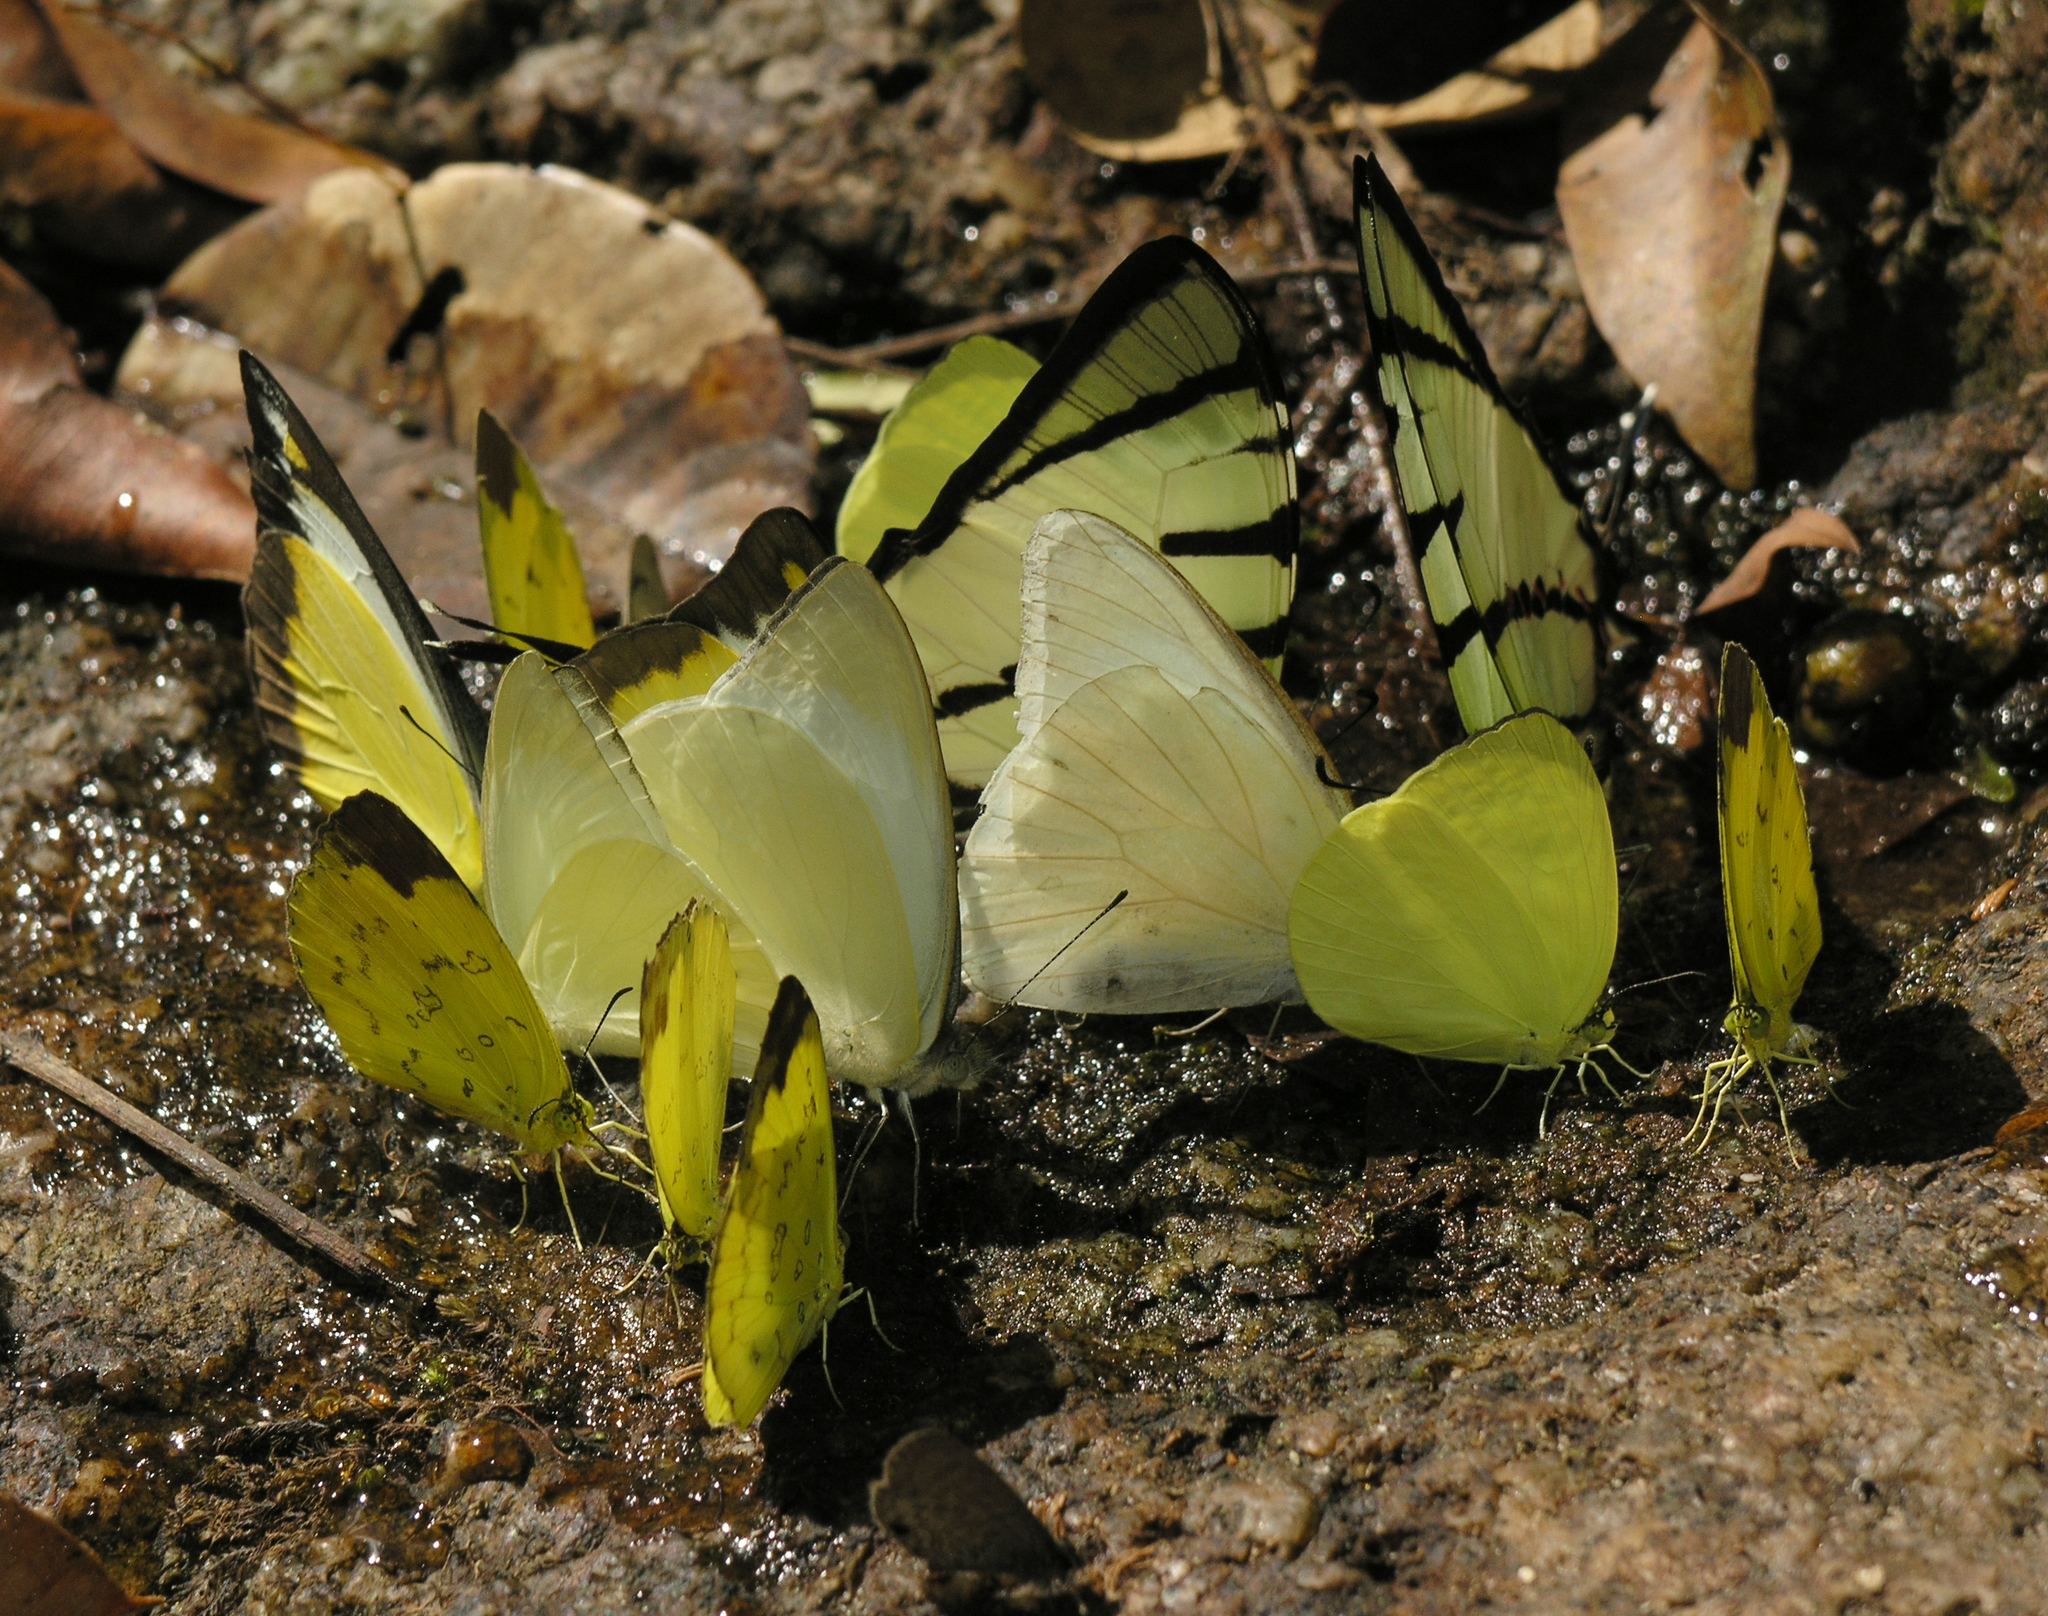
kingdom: Animalia
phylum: Arthropoda
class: Insecta
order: Lepidoptera
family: Pieridae
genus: Gandaca
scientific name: Gandaca harina
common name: Tree yellow
